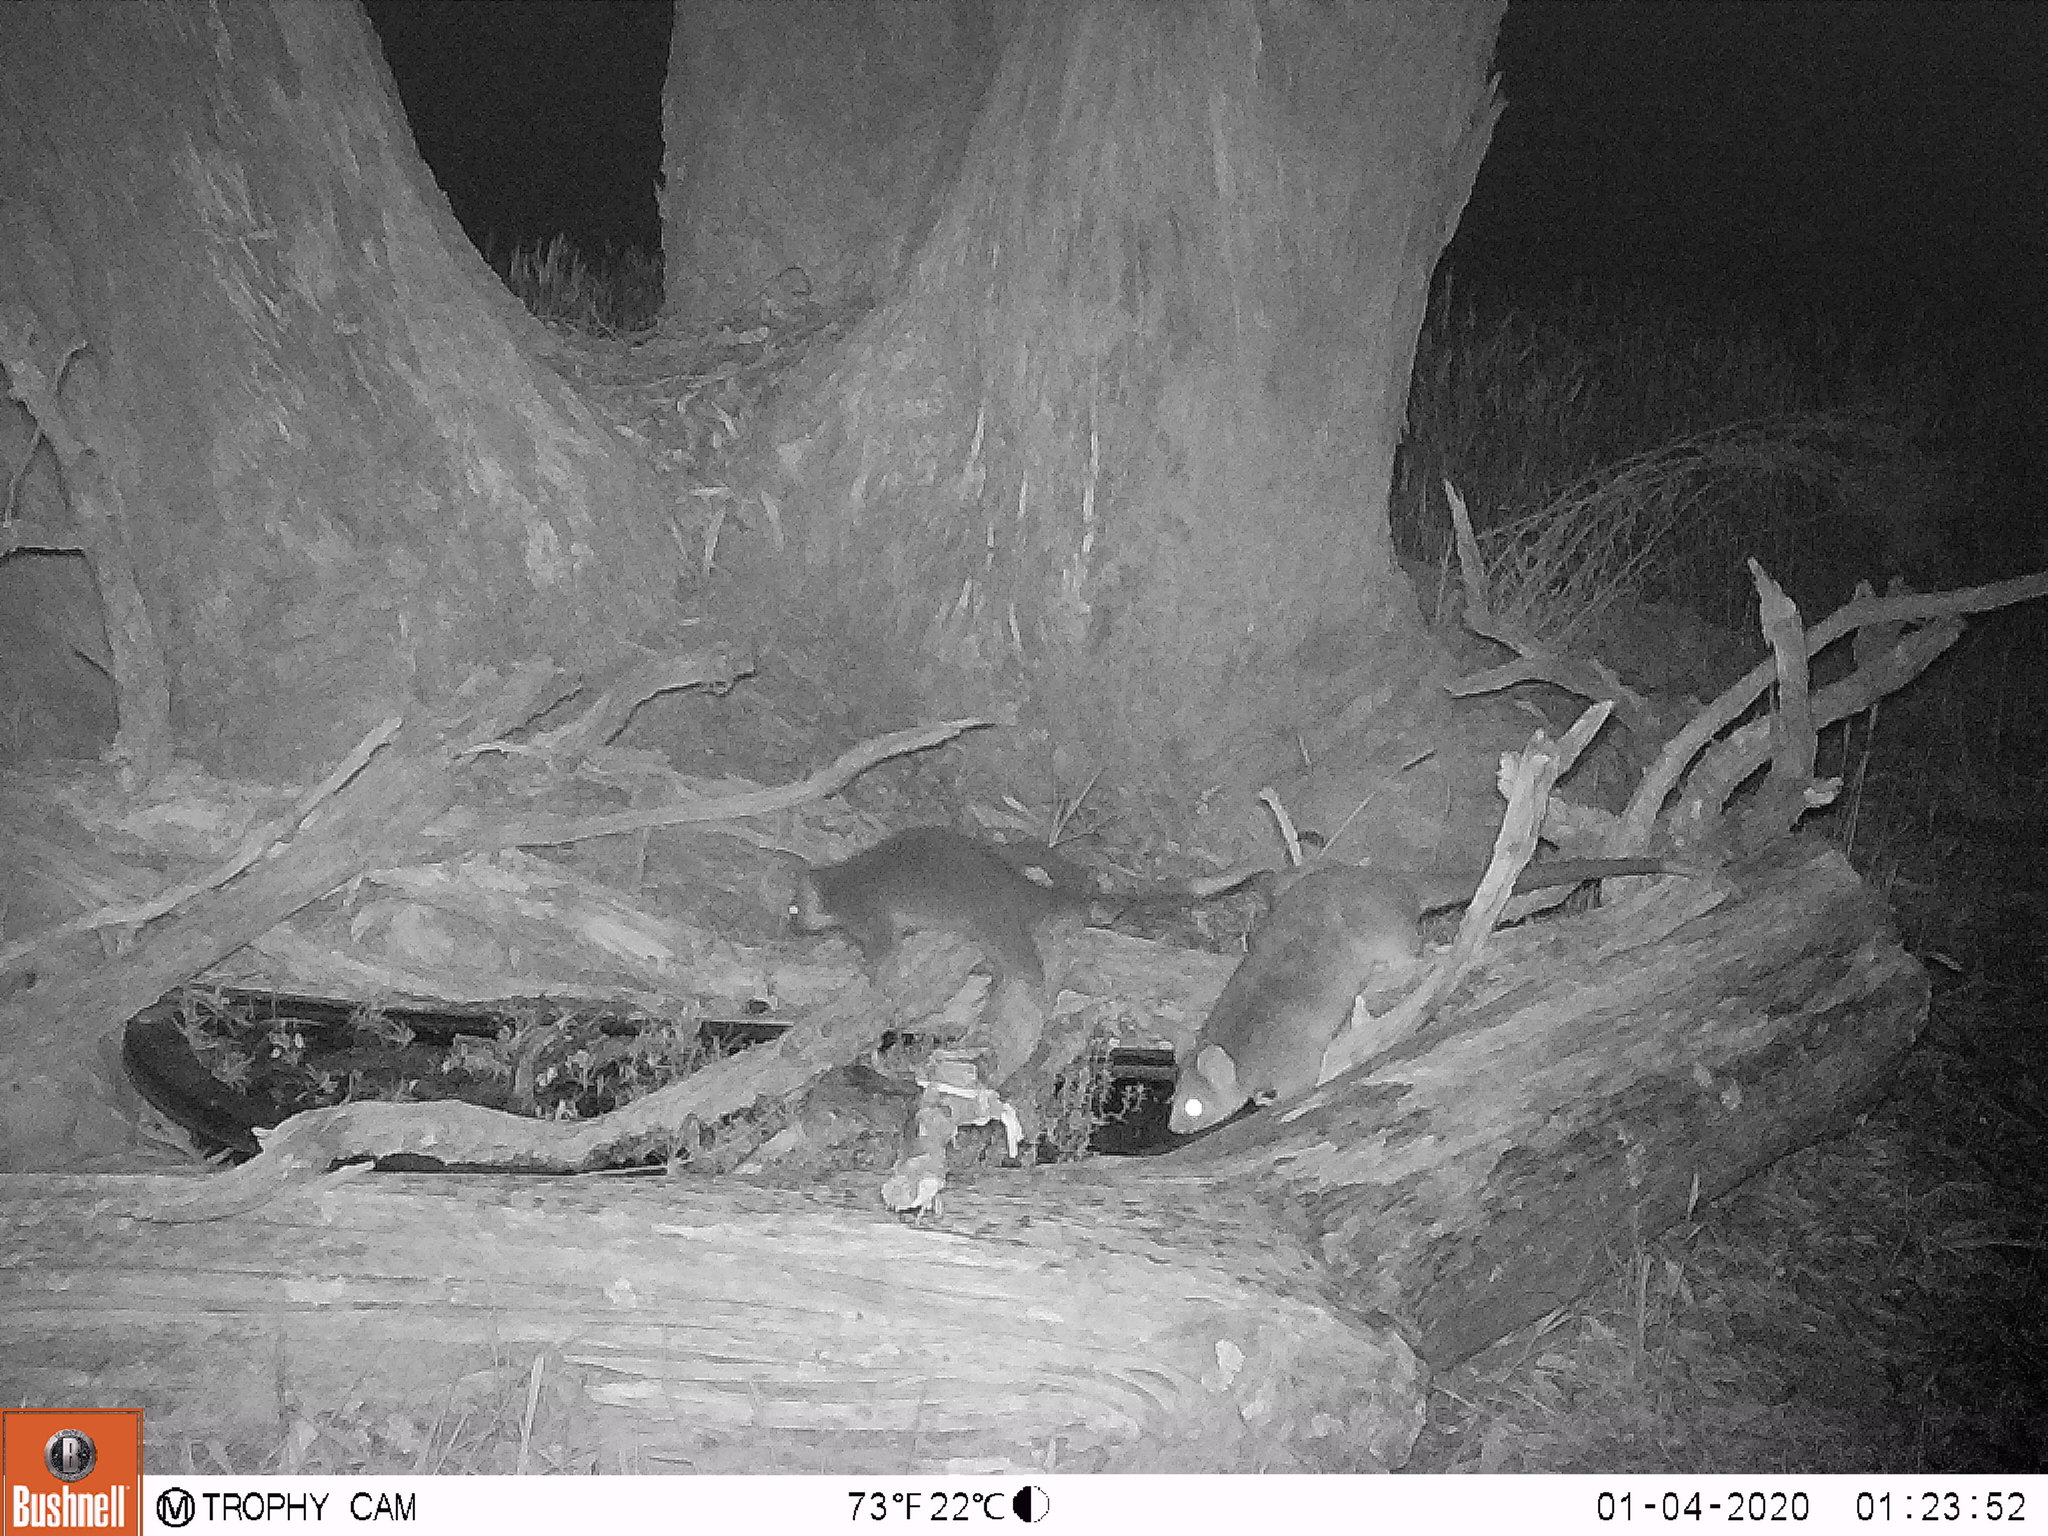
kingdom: Animalia
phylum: Chordata
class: Mammalia
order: Diprotodontia
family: Pseudocheiridae
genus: Pseudocheirus
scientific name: Pseudocheirus peregrinus
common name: Common ringtail possum
